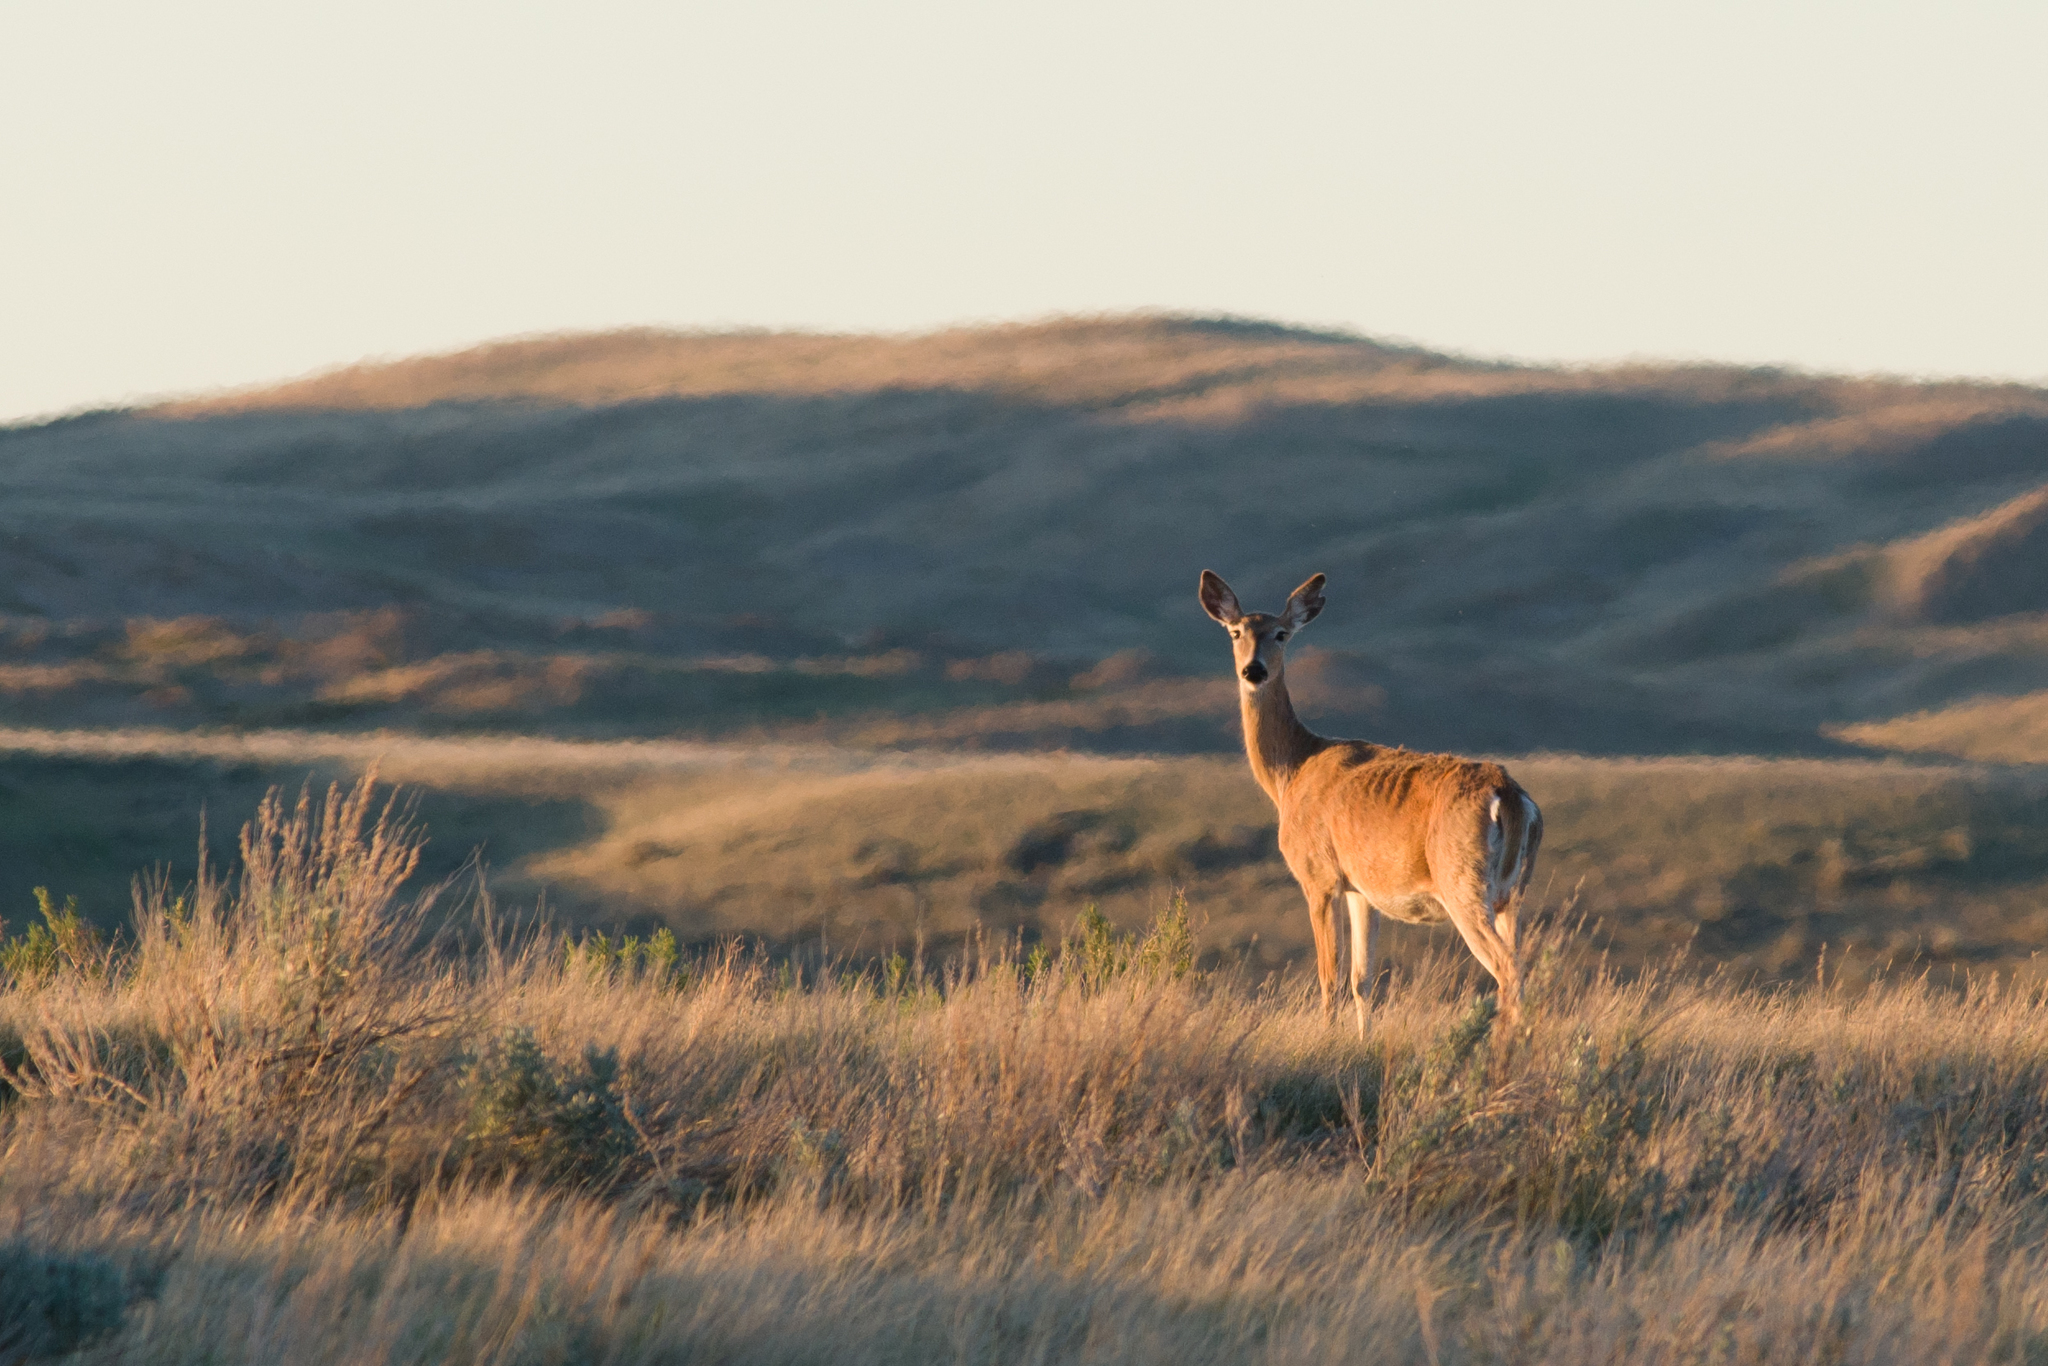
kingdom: Animalia
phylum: Chordata
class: Mammalia
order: Artiodactyla
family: Cervidae
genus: Odocoileus
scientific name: Odocoileus virginianus
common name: White-tailed deer
